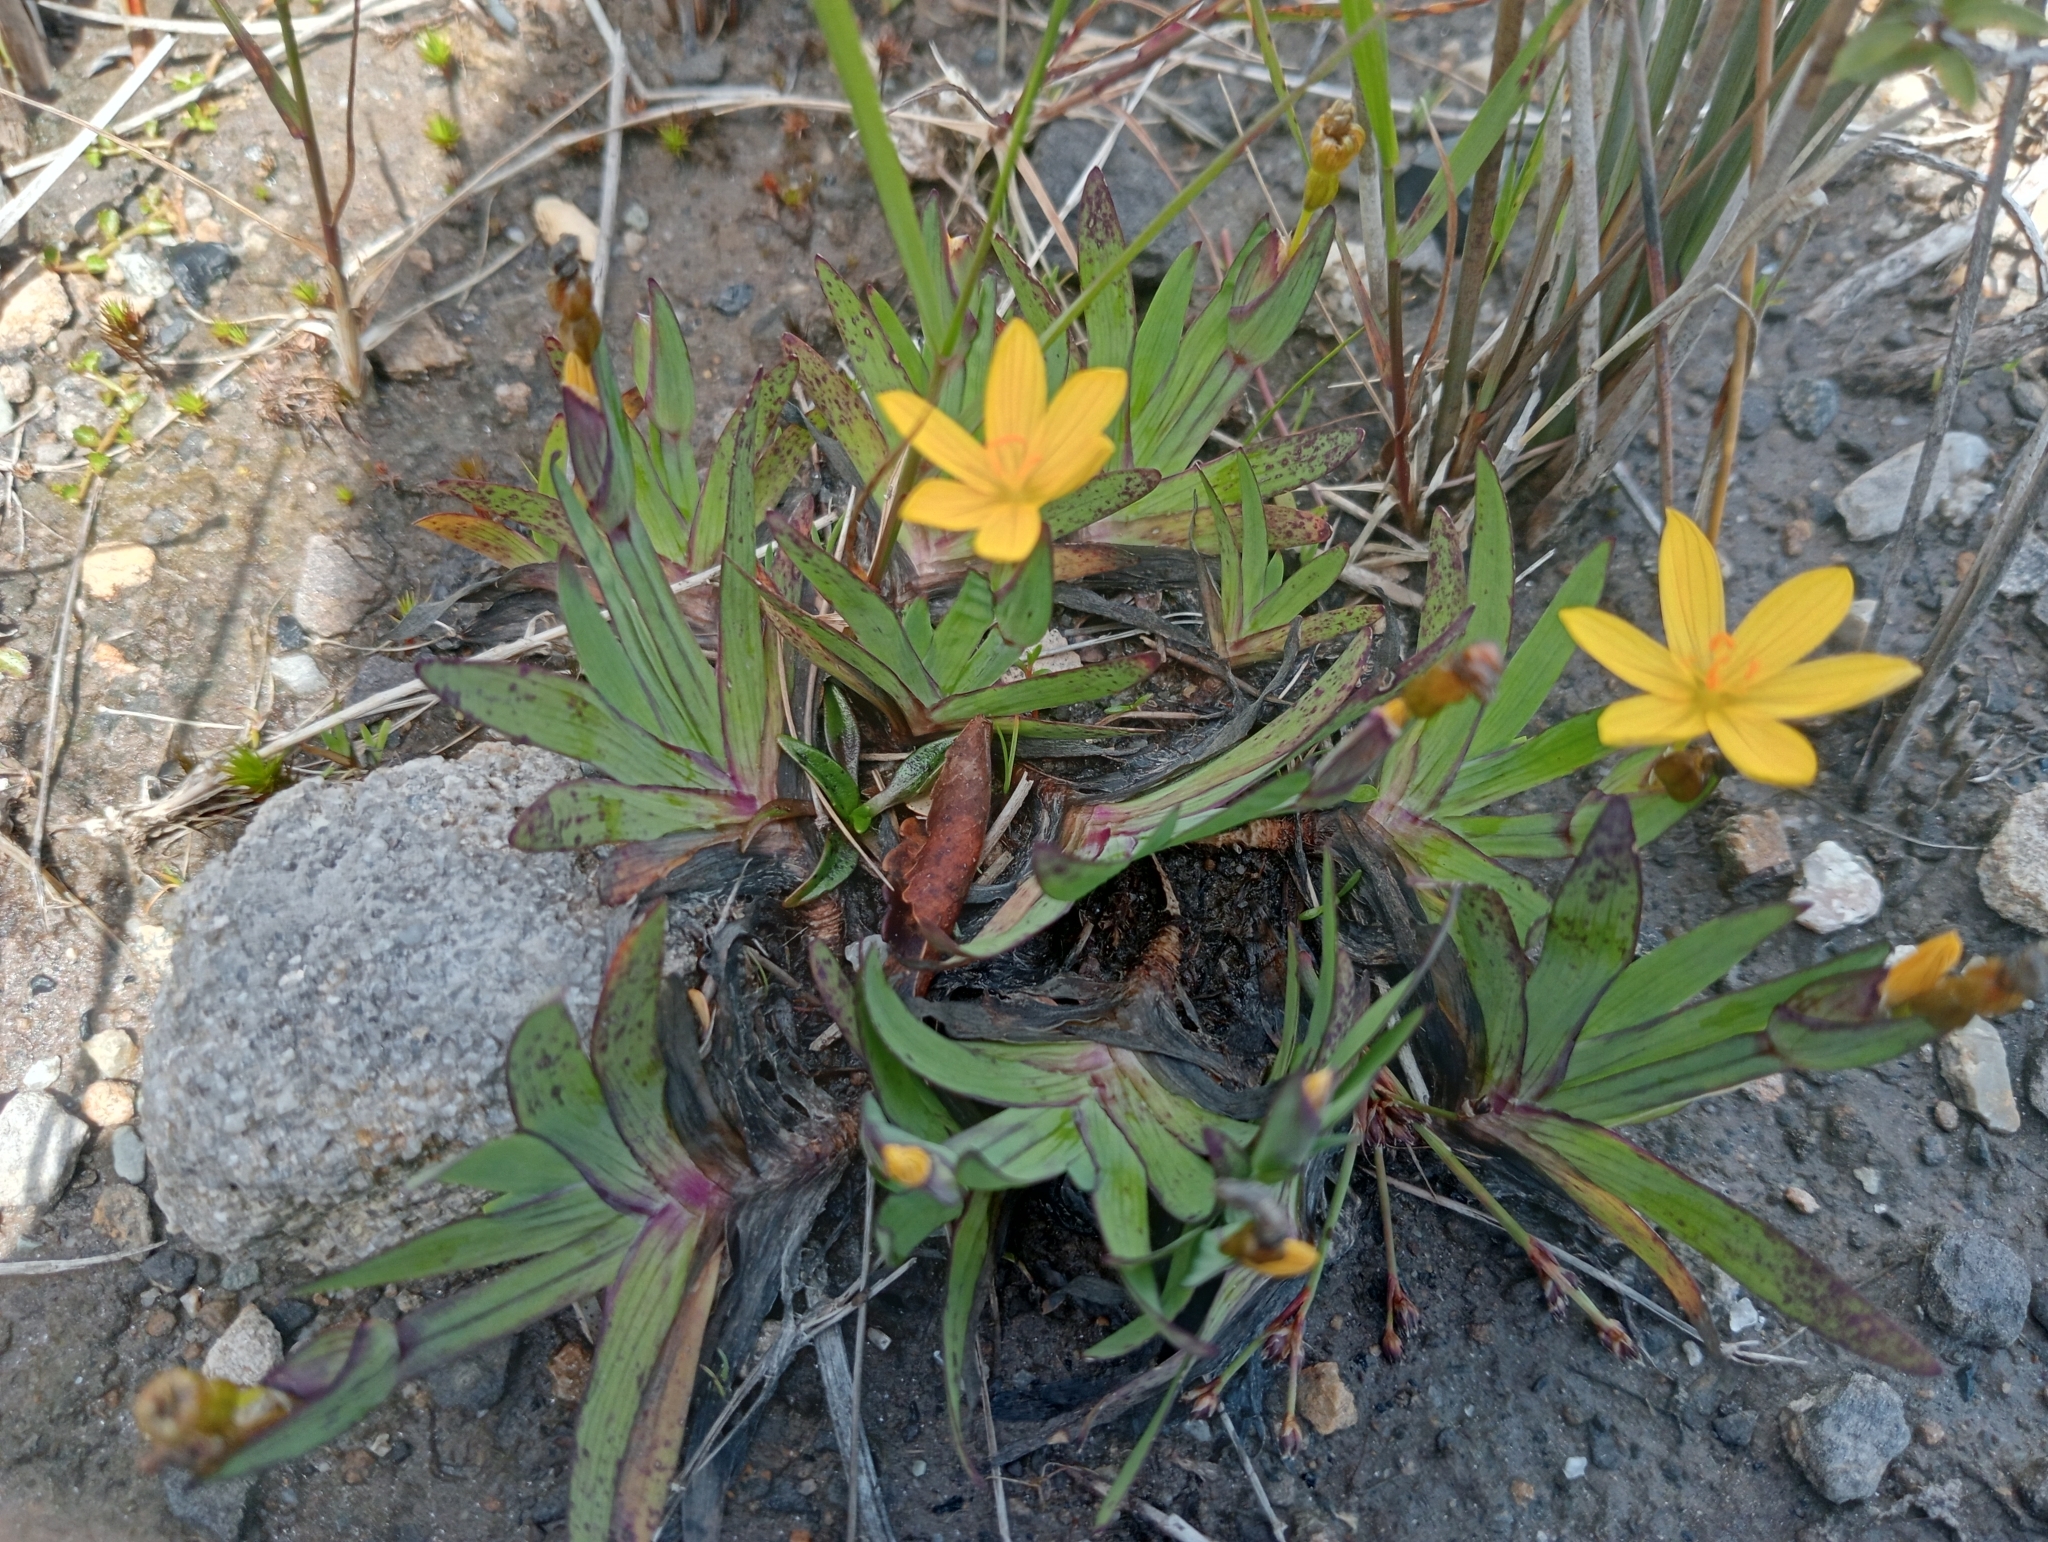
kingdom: Plantae
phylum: Tracheophyta
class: Liliopsida
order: Asparagales
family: Iridaceae
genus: Sisyrinchium
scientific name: Sisyrinchium californicum
